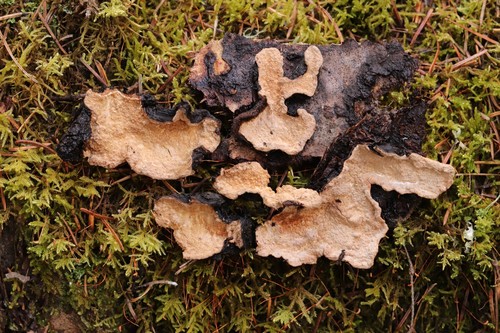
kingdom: Fungi
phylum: Basidiomycota
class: Agaricomycetes
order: Russulales
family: Bondarzewiaceae
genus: Laurilia
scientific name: Laurilia sulcata
